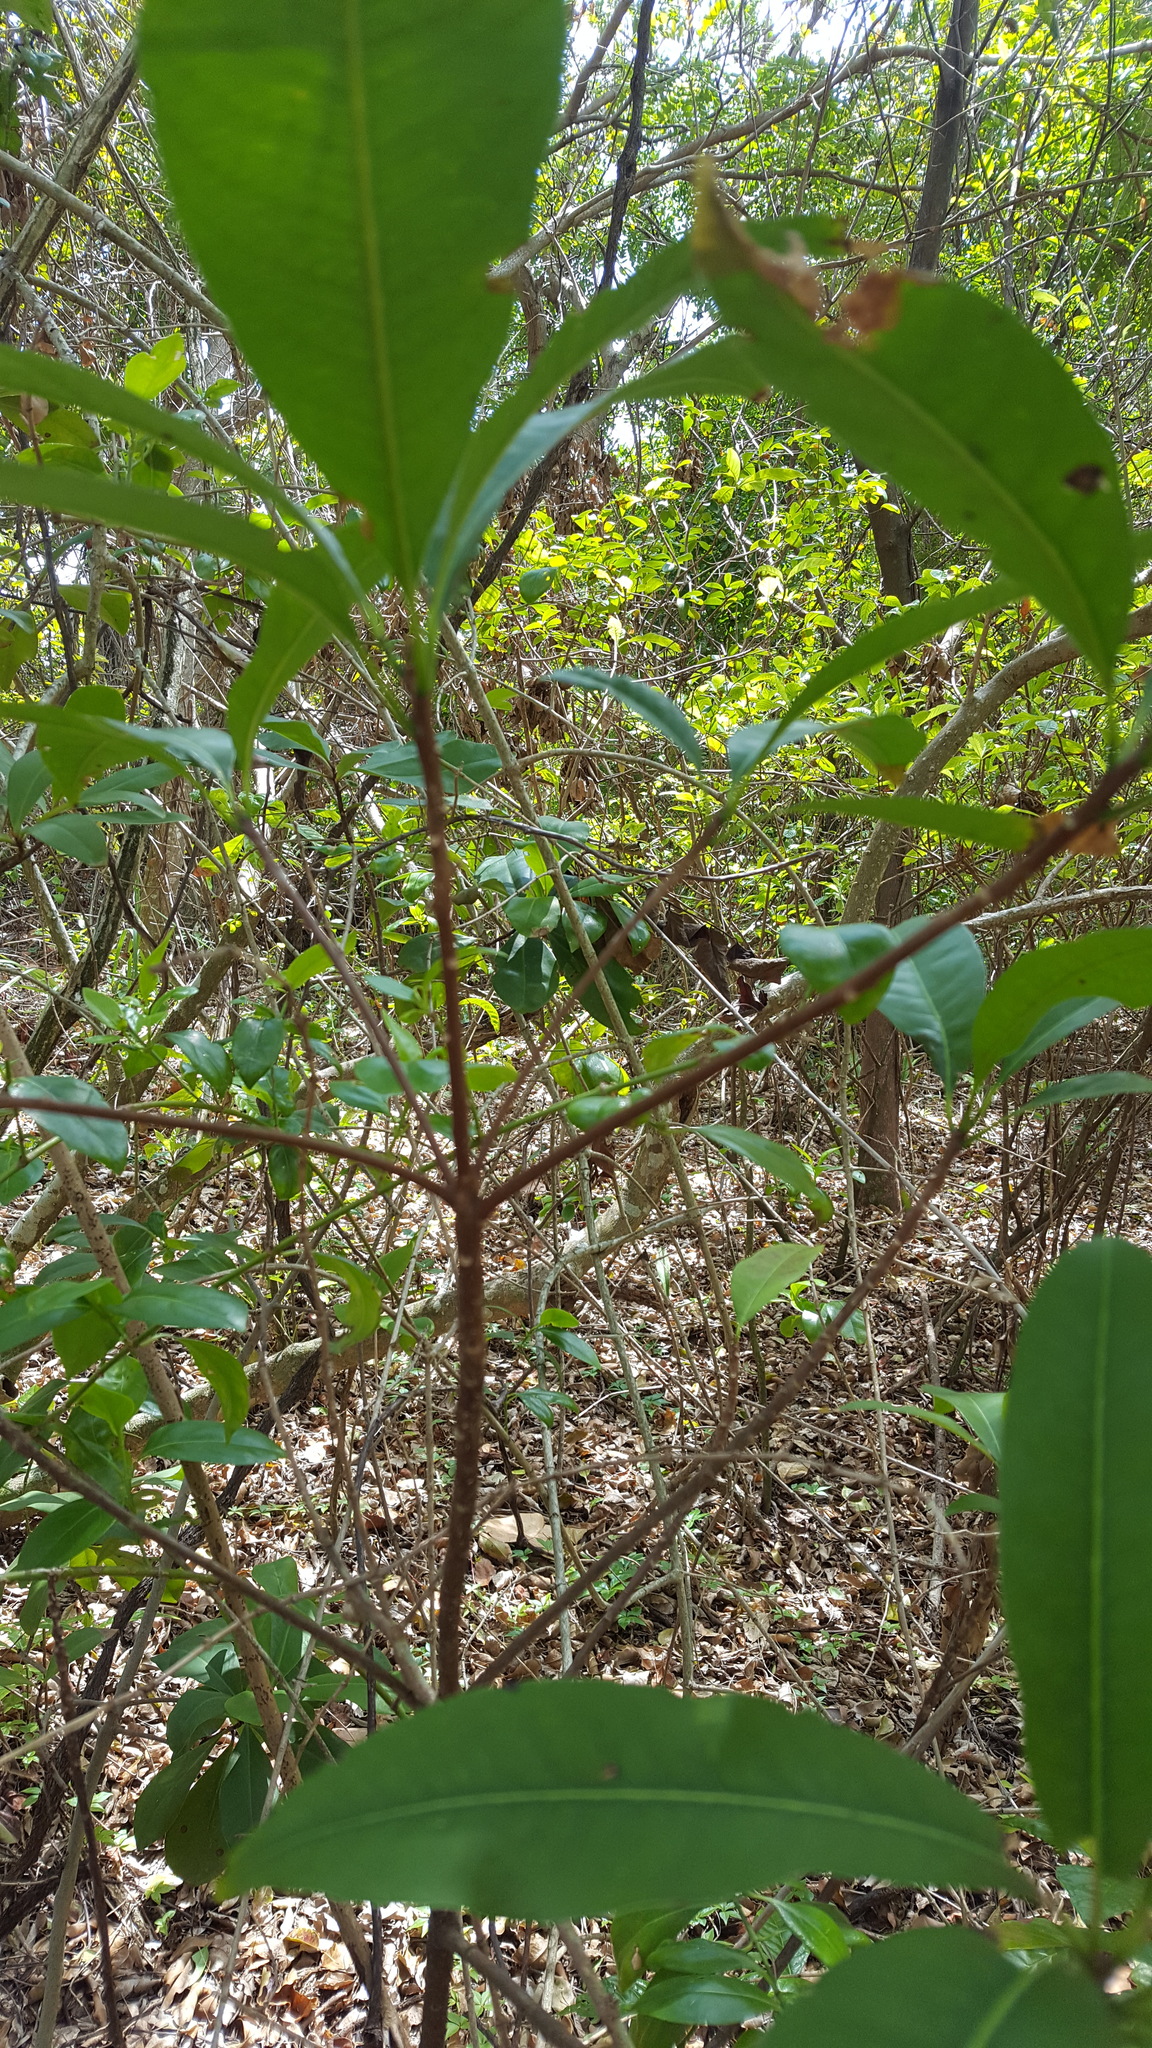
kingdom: Plantae
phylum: Tracheophyta
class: Magnoliopsida
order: Ericales
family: Sapotaceae
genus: Sideroxylon
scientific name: Sideroxylon foetidissimum
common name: Barbados-mastic
